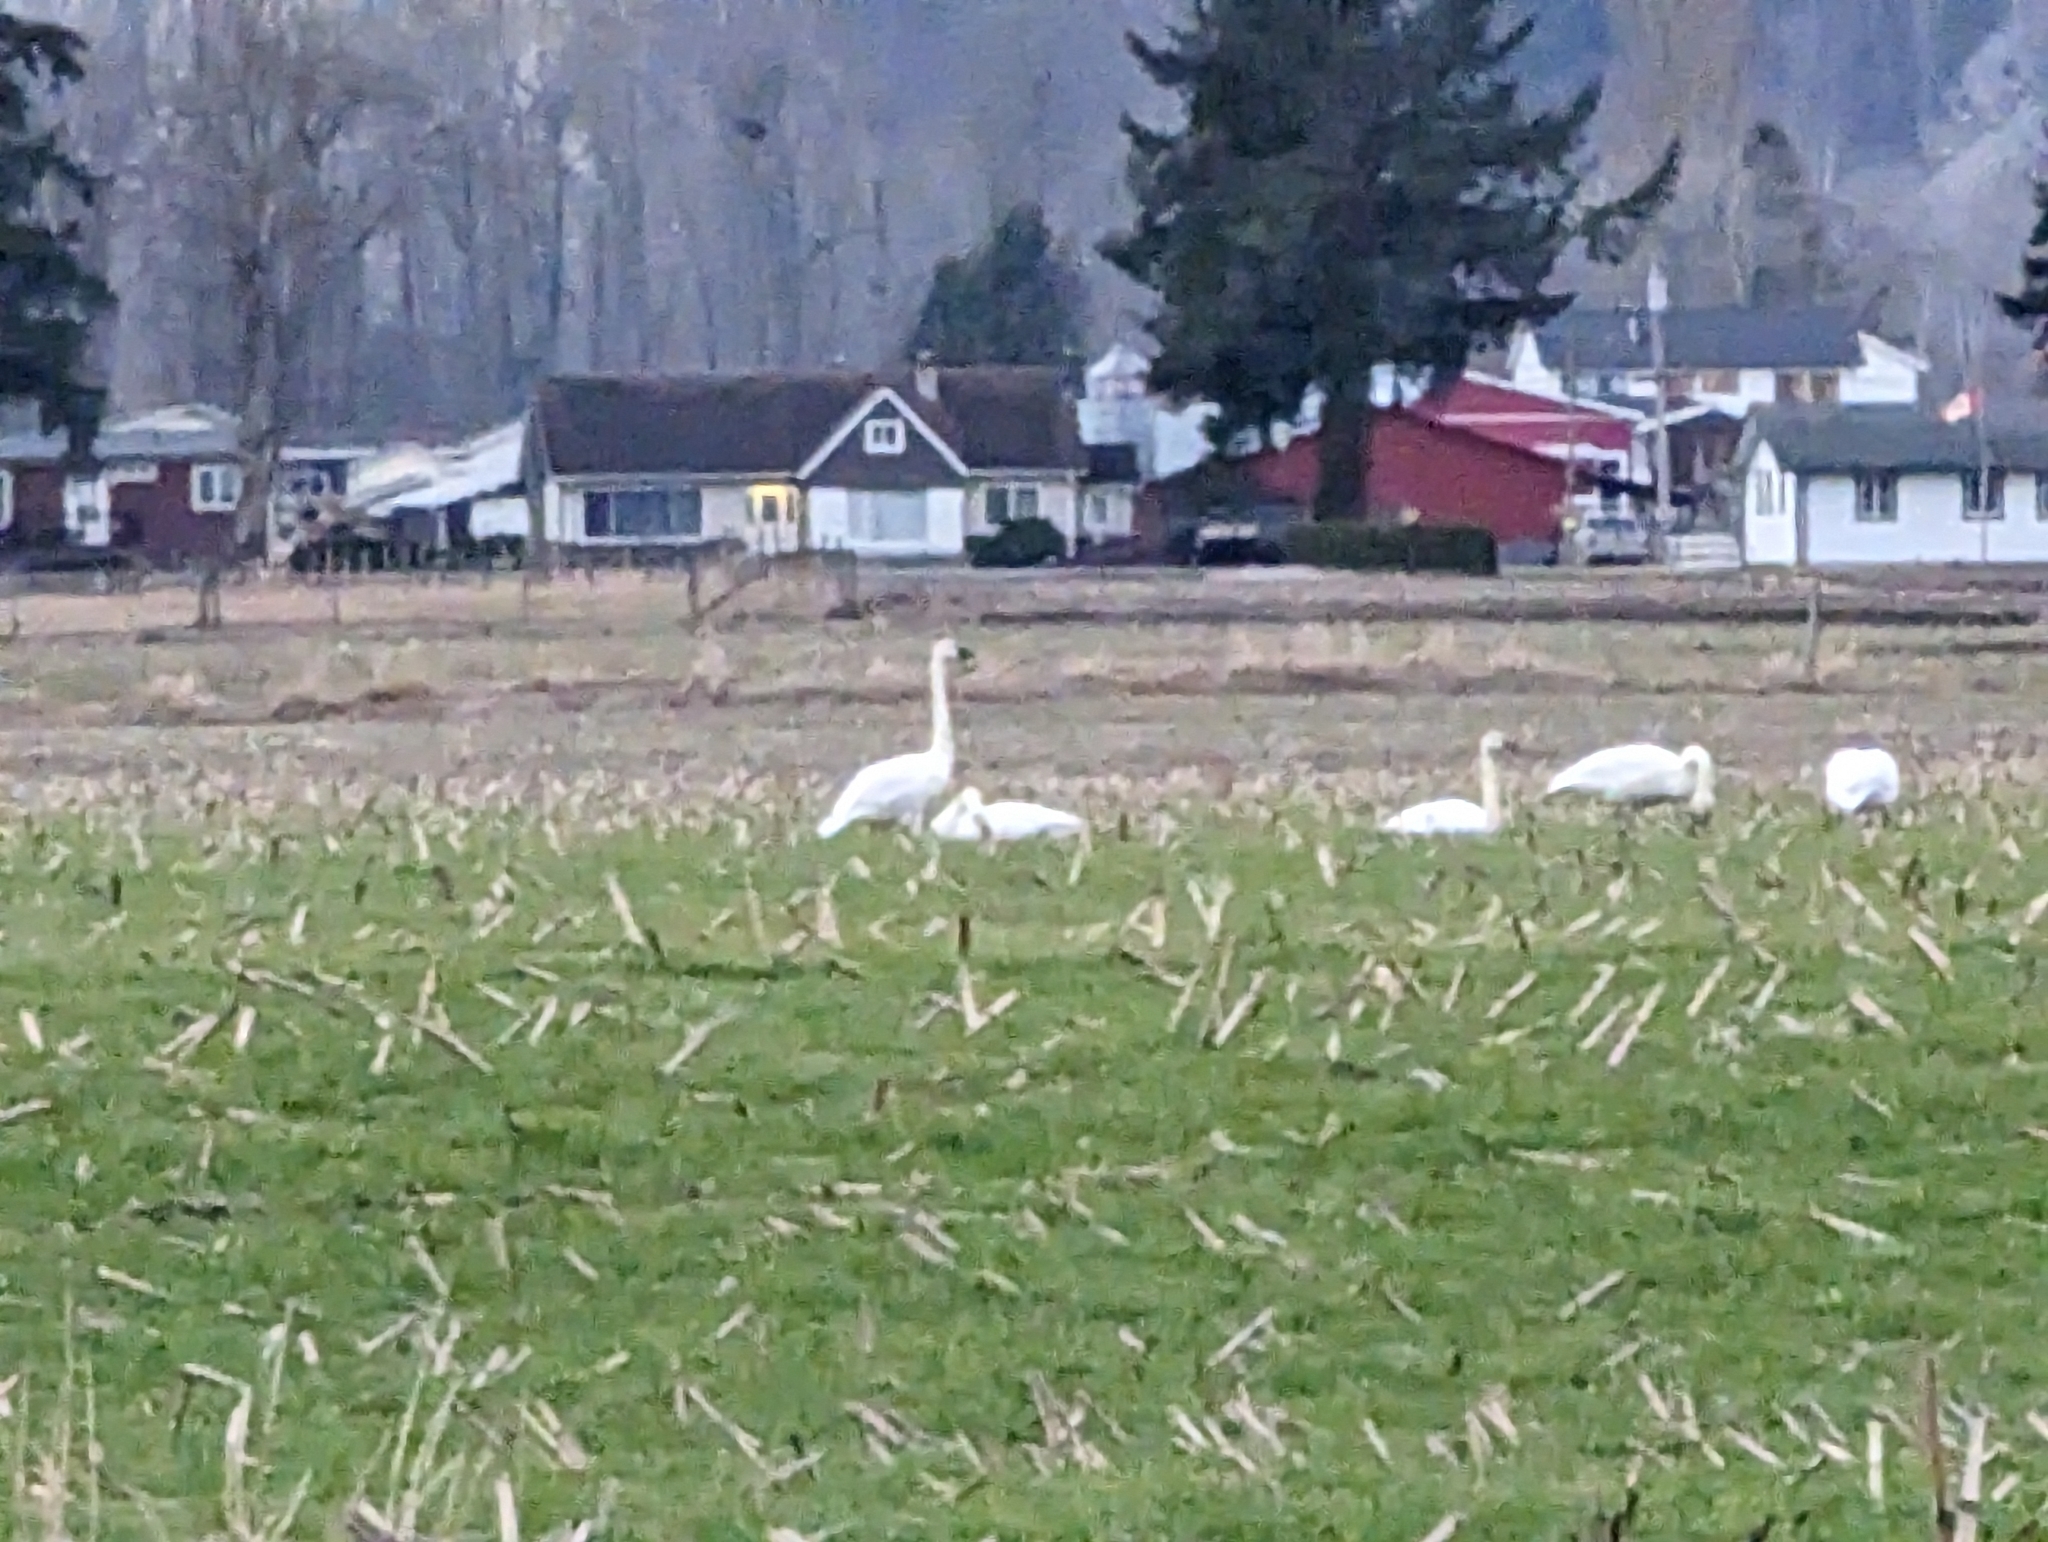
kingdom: Animalia
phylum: Chordata
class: Aves
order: Anseriformes
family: Anatidae
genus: Cygnus
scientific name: Cygnus buccinator
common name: Trumpeter swan
